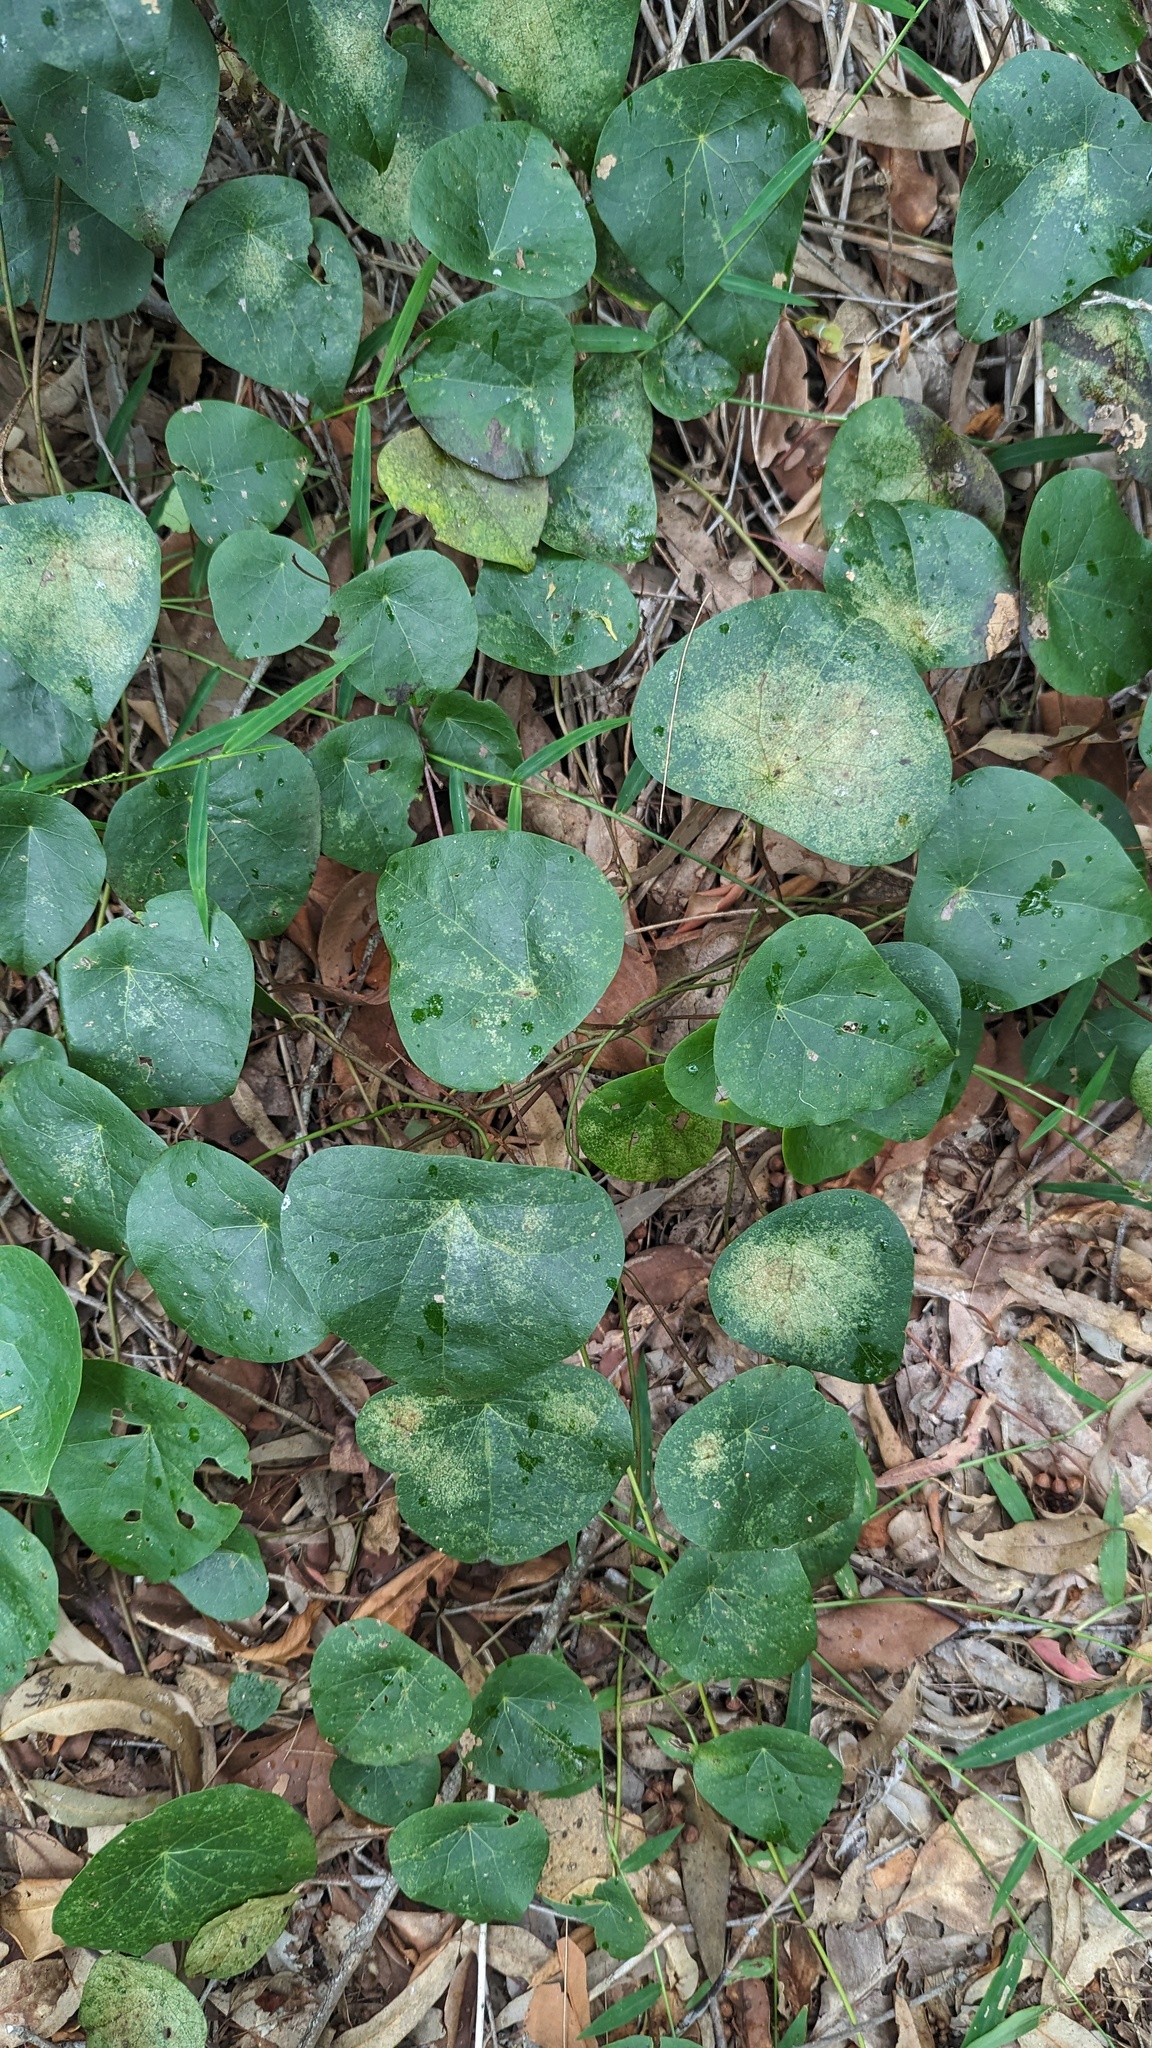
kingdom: Plantae
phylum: Tracheophyta
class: Magnoliopsida
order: Ranunculales
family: Menispermaceae
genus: Stephania
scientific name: Stephania japonica
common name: Snake vine
